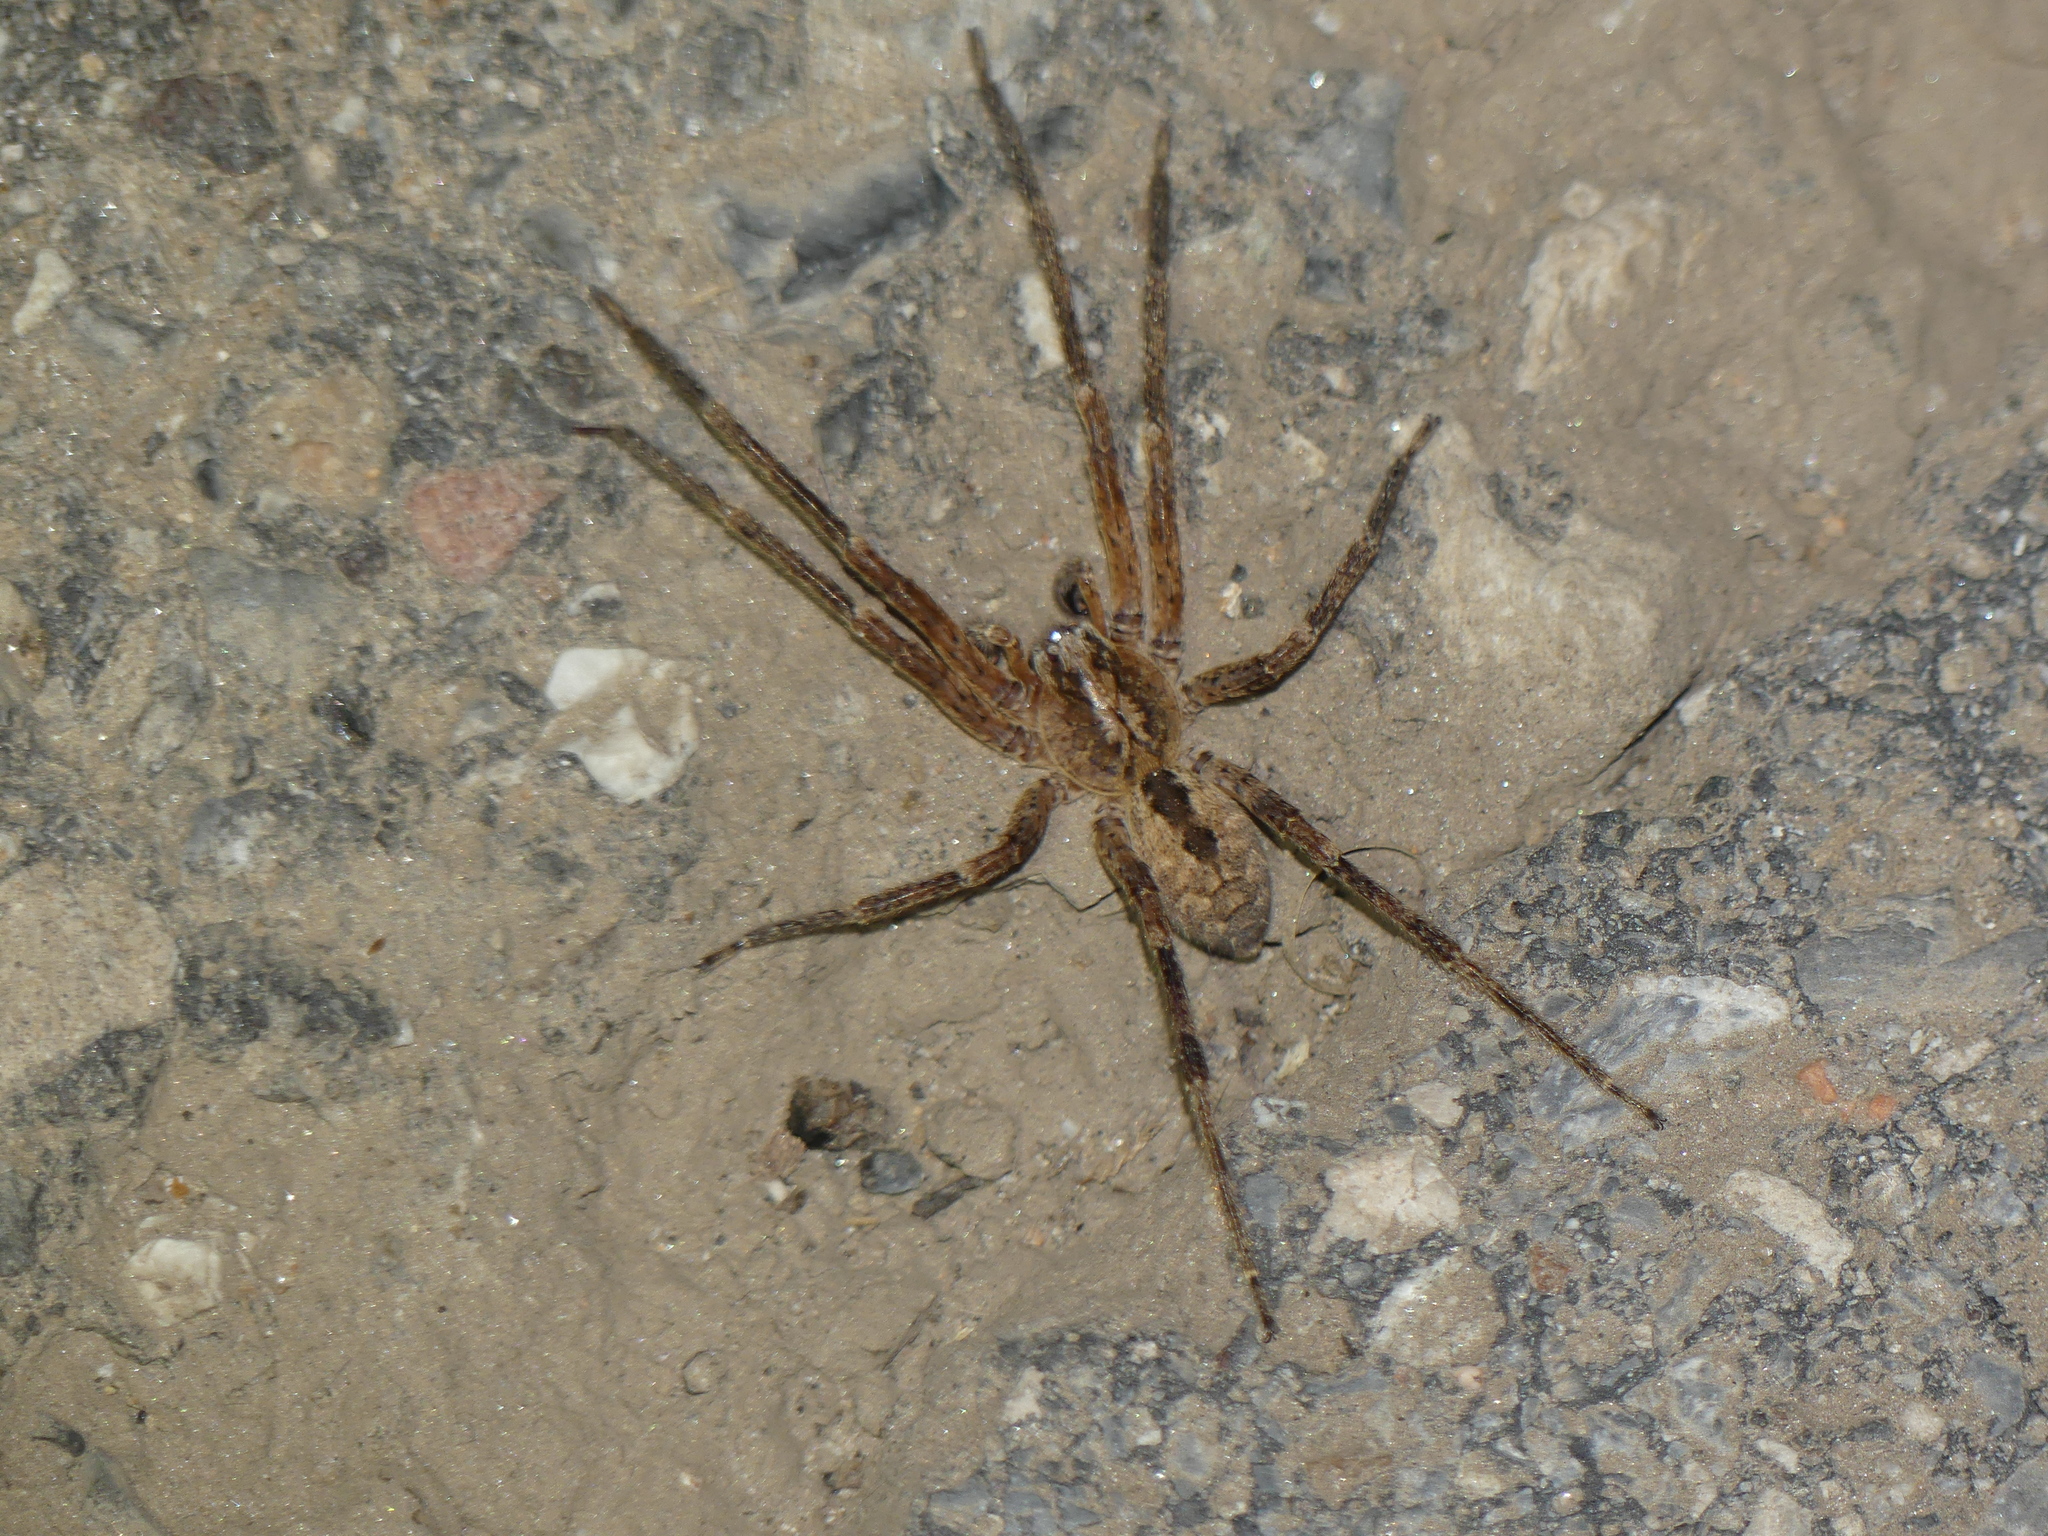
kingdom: Animalia
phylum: Arthropoda
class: Arachnida
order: Araneae
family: Zoropsidae
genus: Zoropsis
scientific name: Zoropsis spinimana
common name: Zoropsid spider
